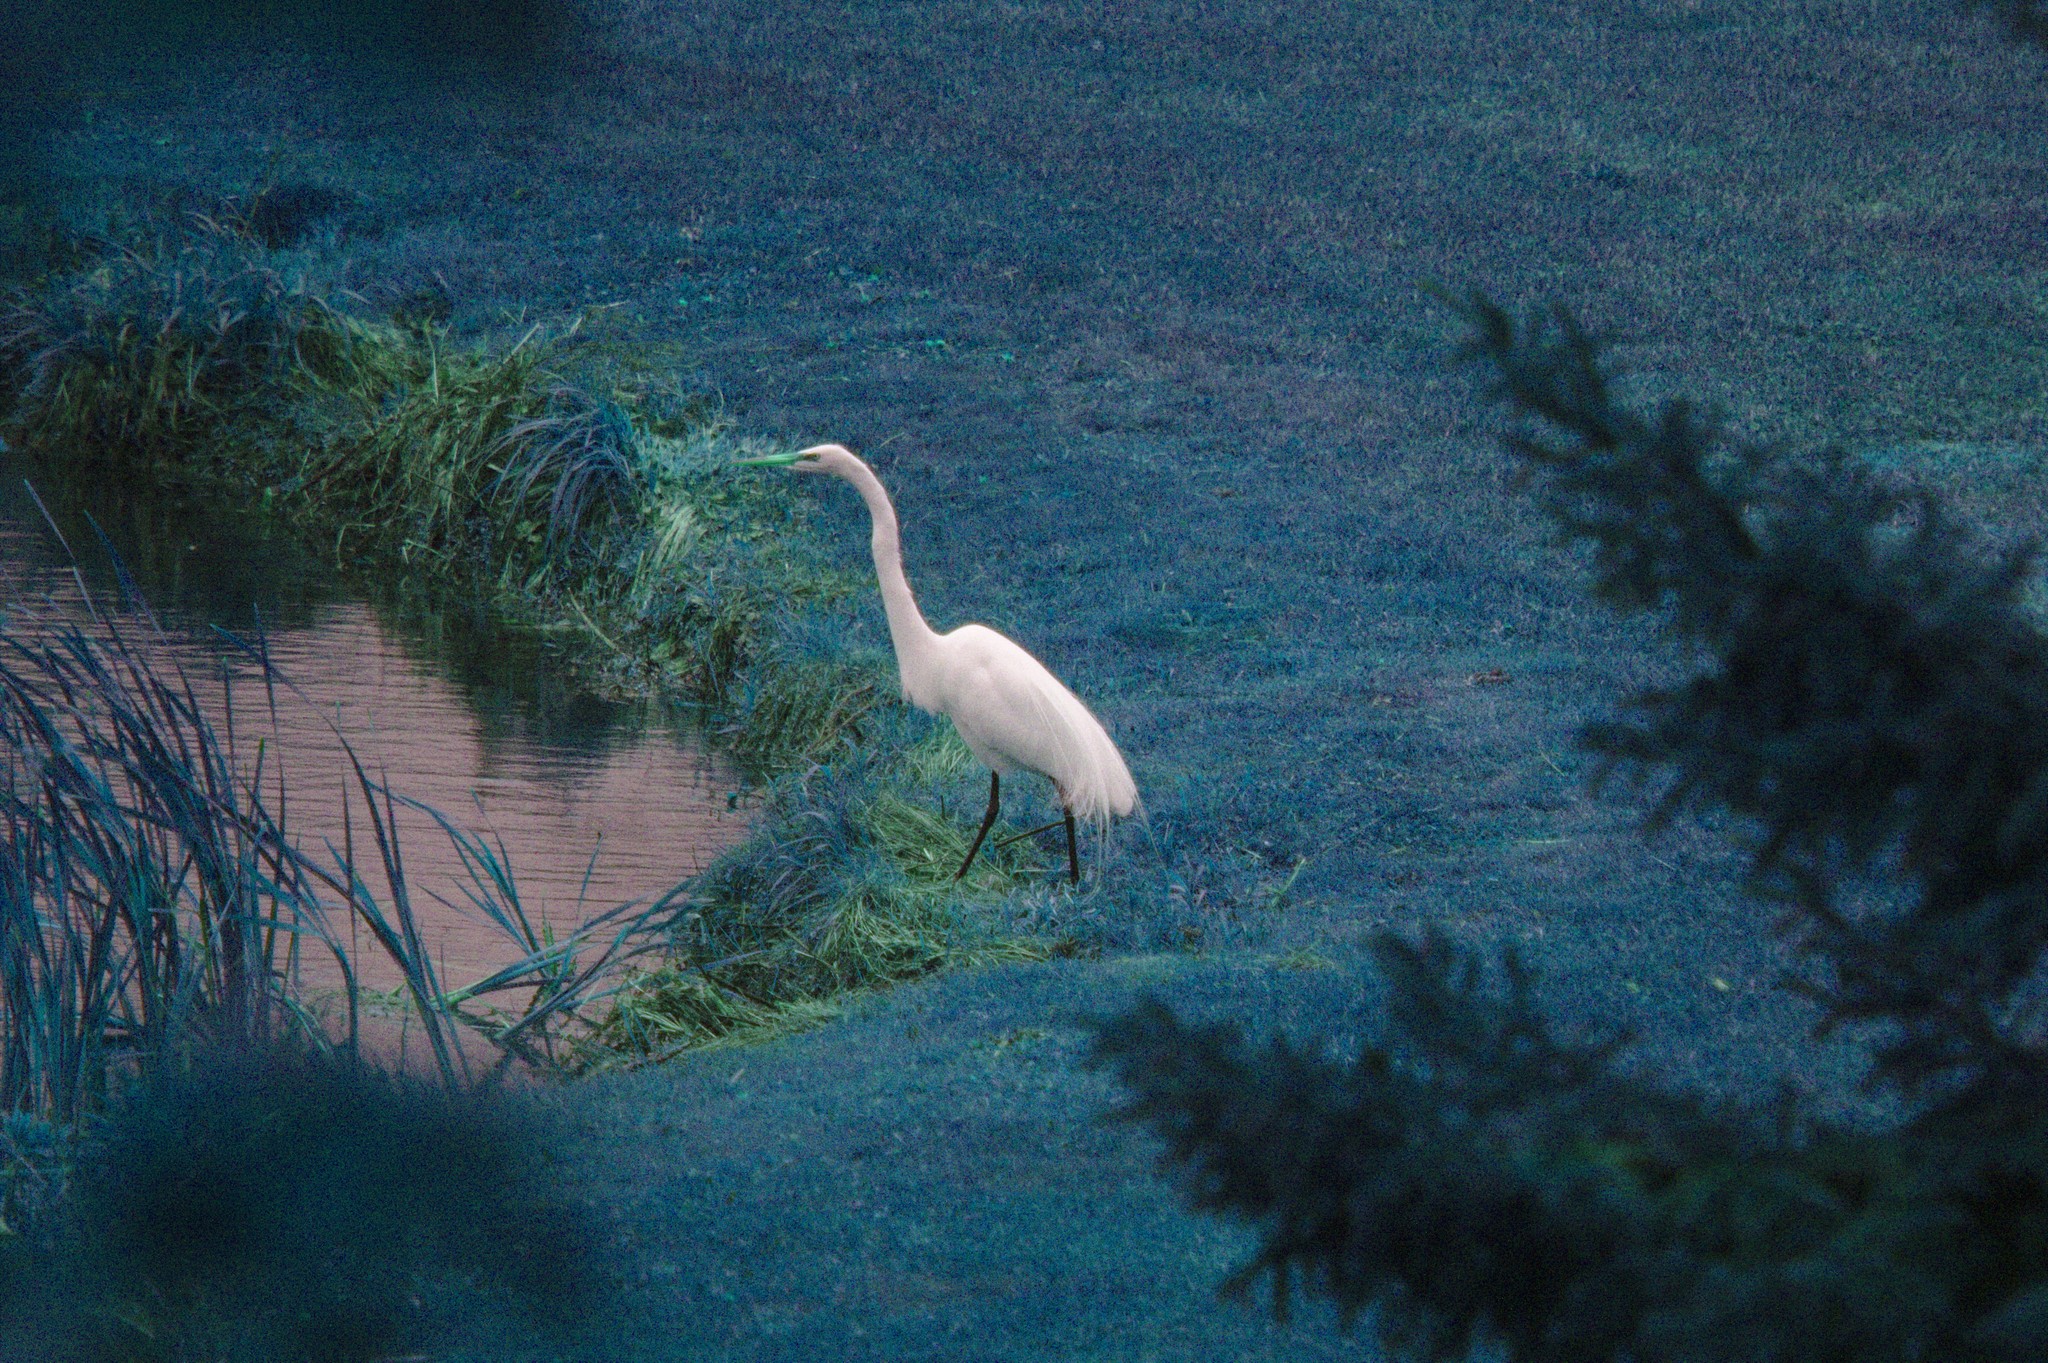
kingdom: Animalia
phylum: Chordata
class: Aves
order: Pelecaniformes
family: Ardeidae
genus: Ardea
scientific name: Ardea alba
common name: Great egret
